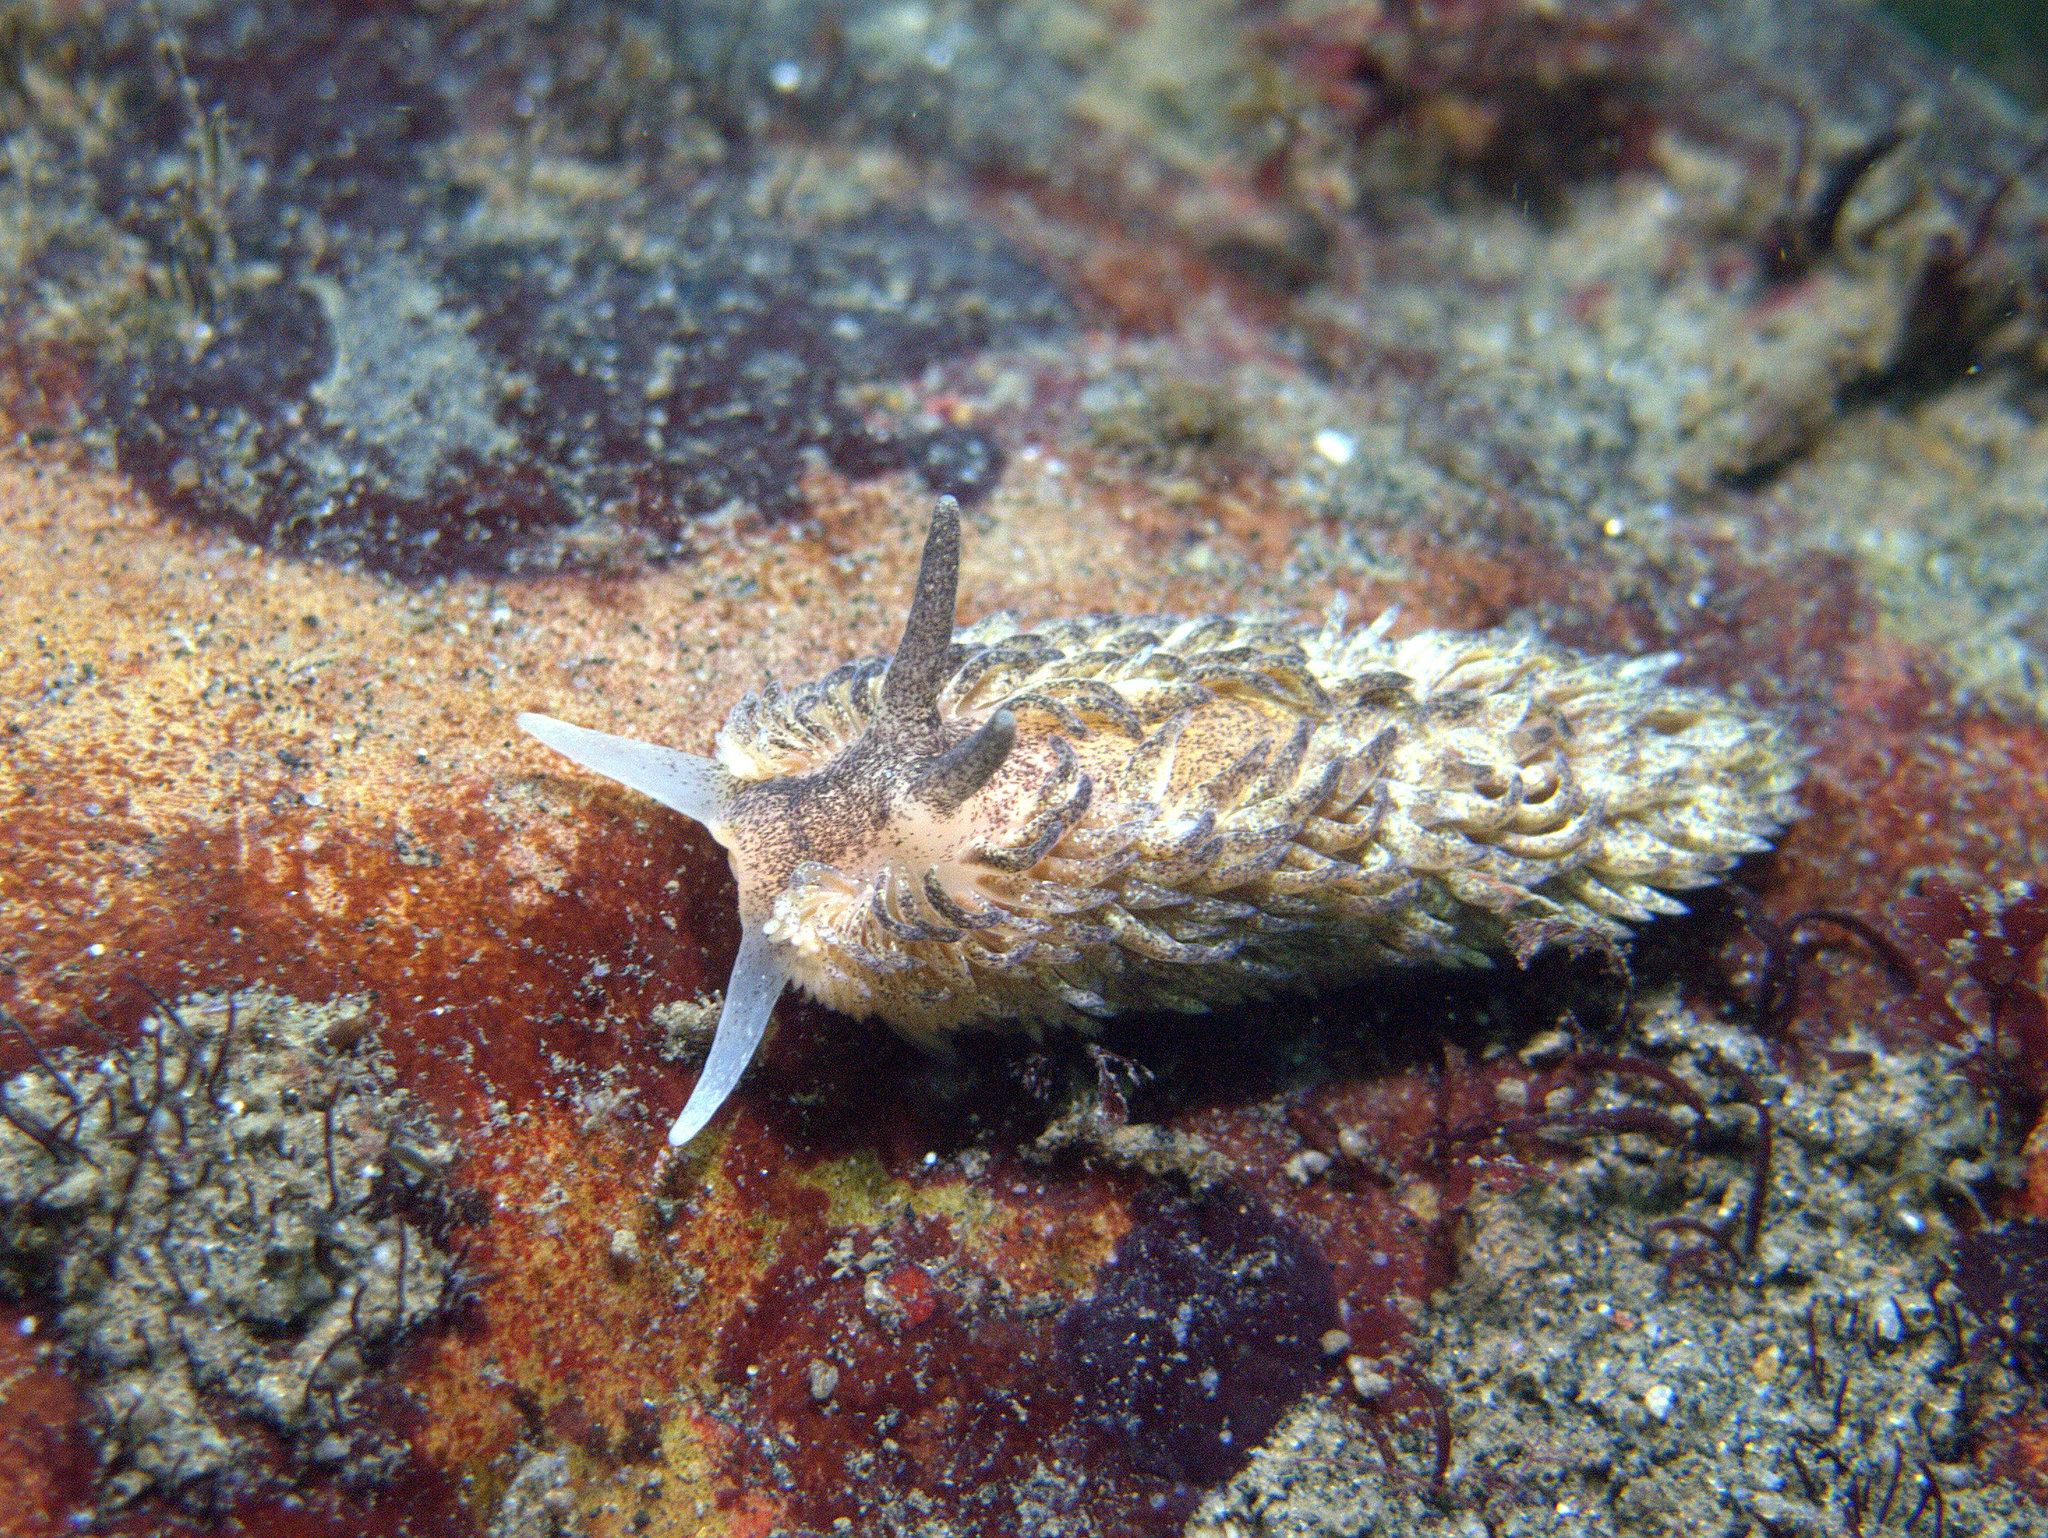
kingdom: Animalia
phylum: Mollusca
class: Gastropoda
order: Nudibranchia
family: Aeolidiidae
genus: Aeolidia
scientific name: Aeolidia papillosa
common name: Common grey sea slug
